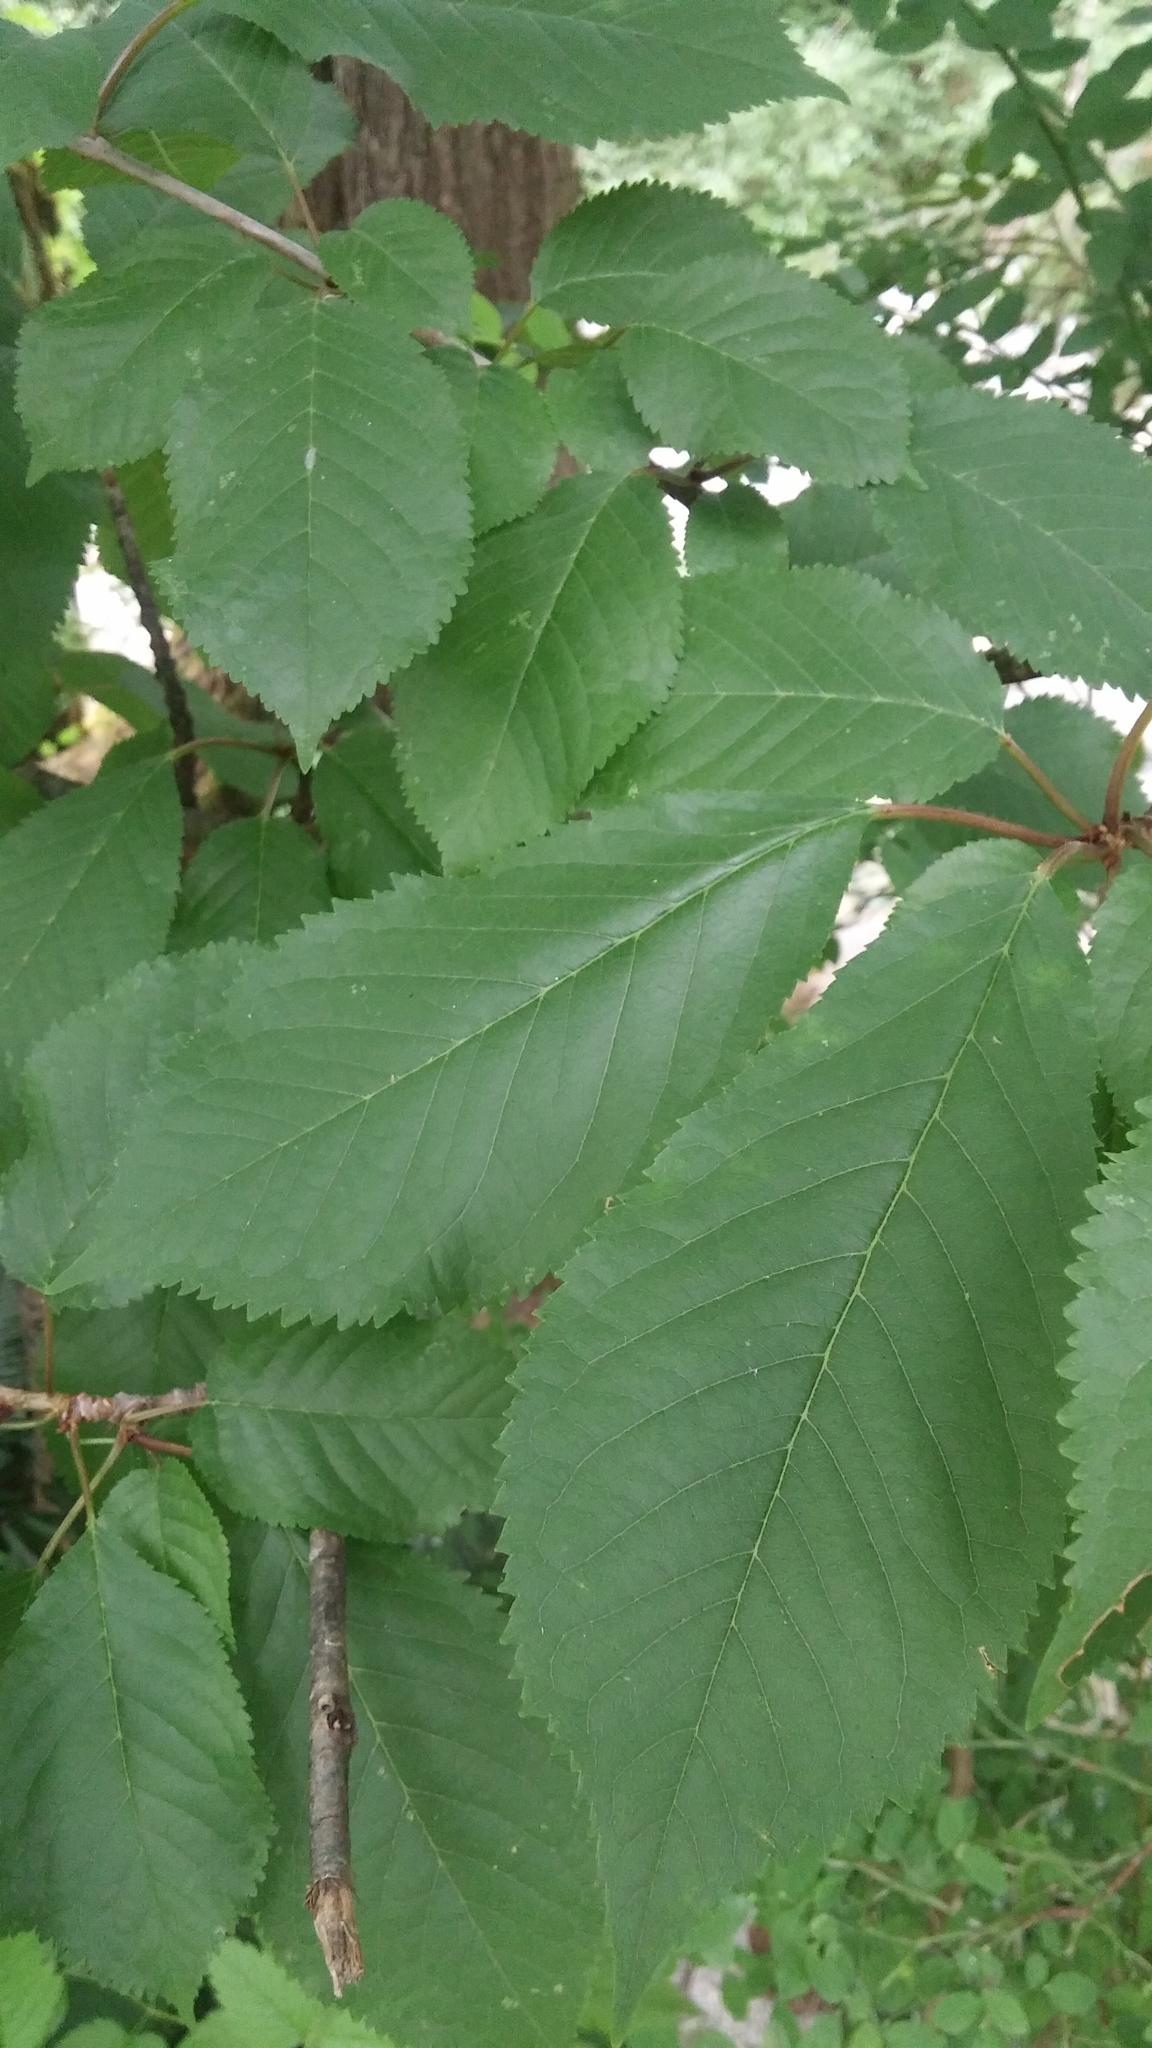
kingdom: Plantae
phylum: Tracheophyta
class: Magnoliopsida
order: Rosales
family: Rosaceae
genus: Prunus
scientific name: Prunus avium
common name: Sweet cherry
